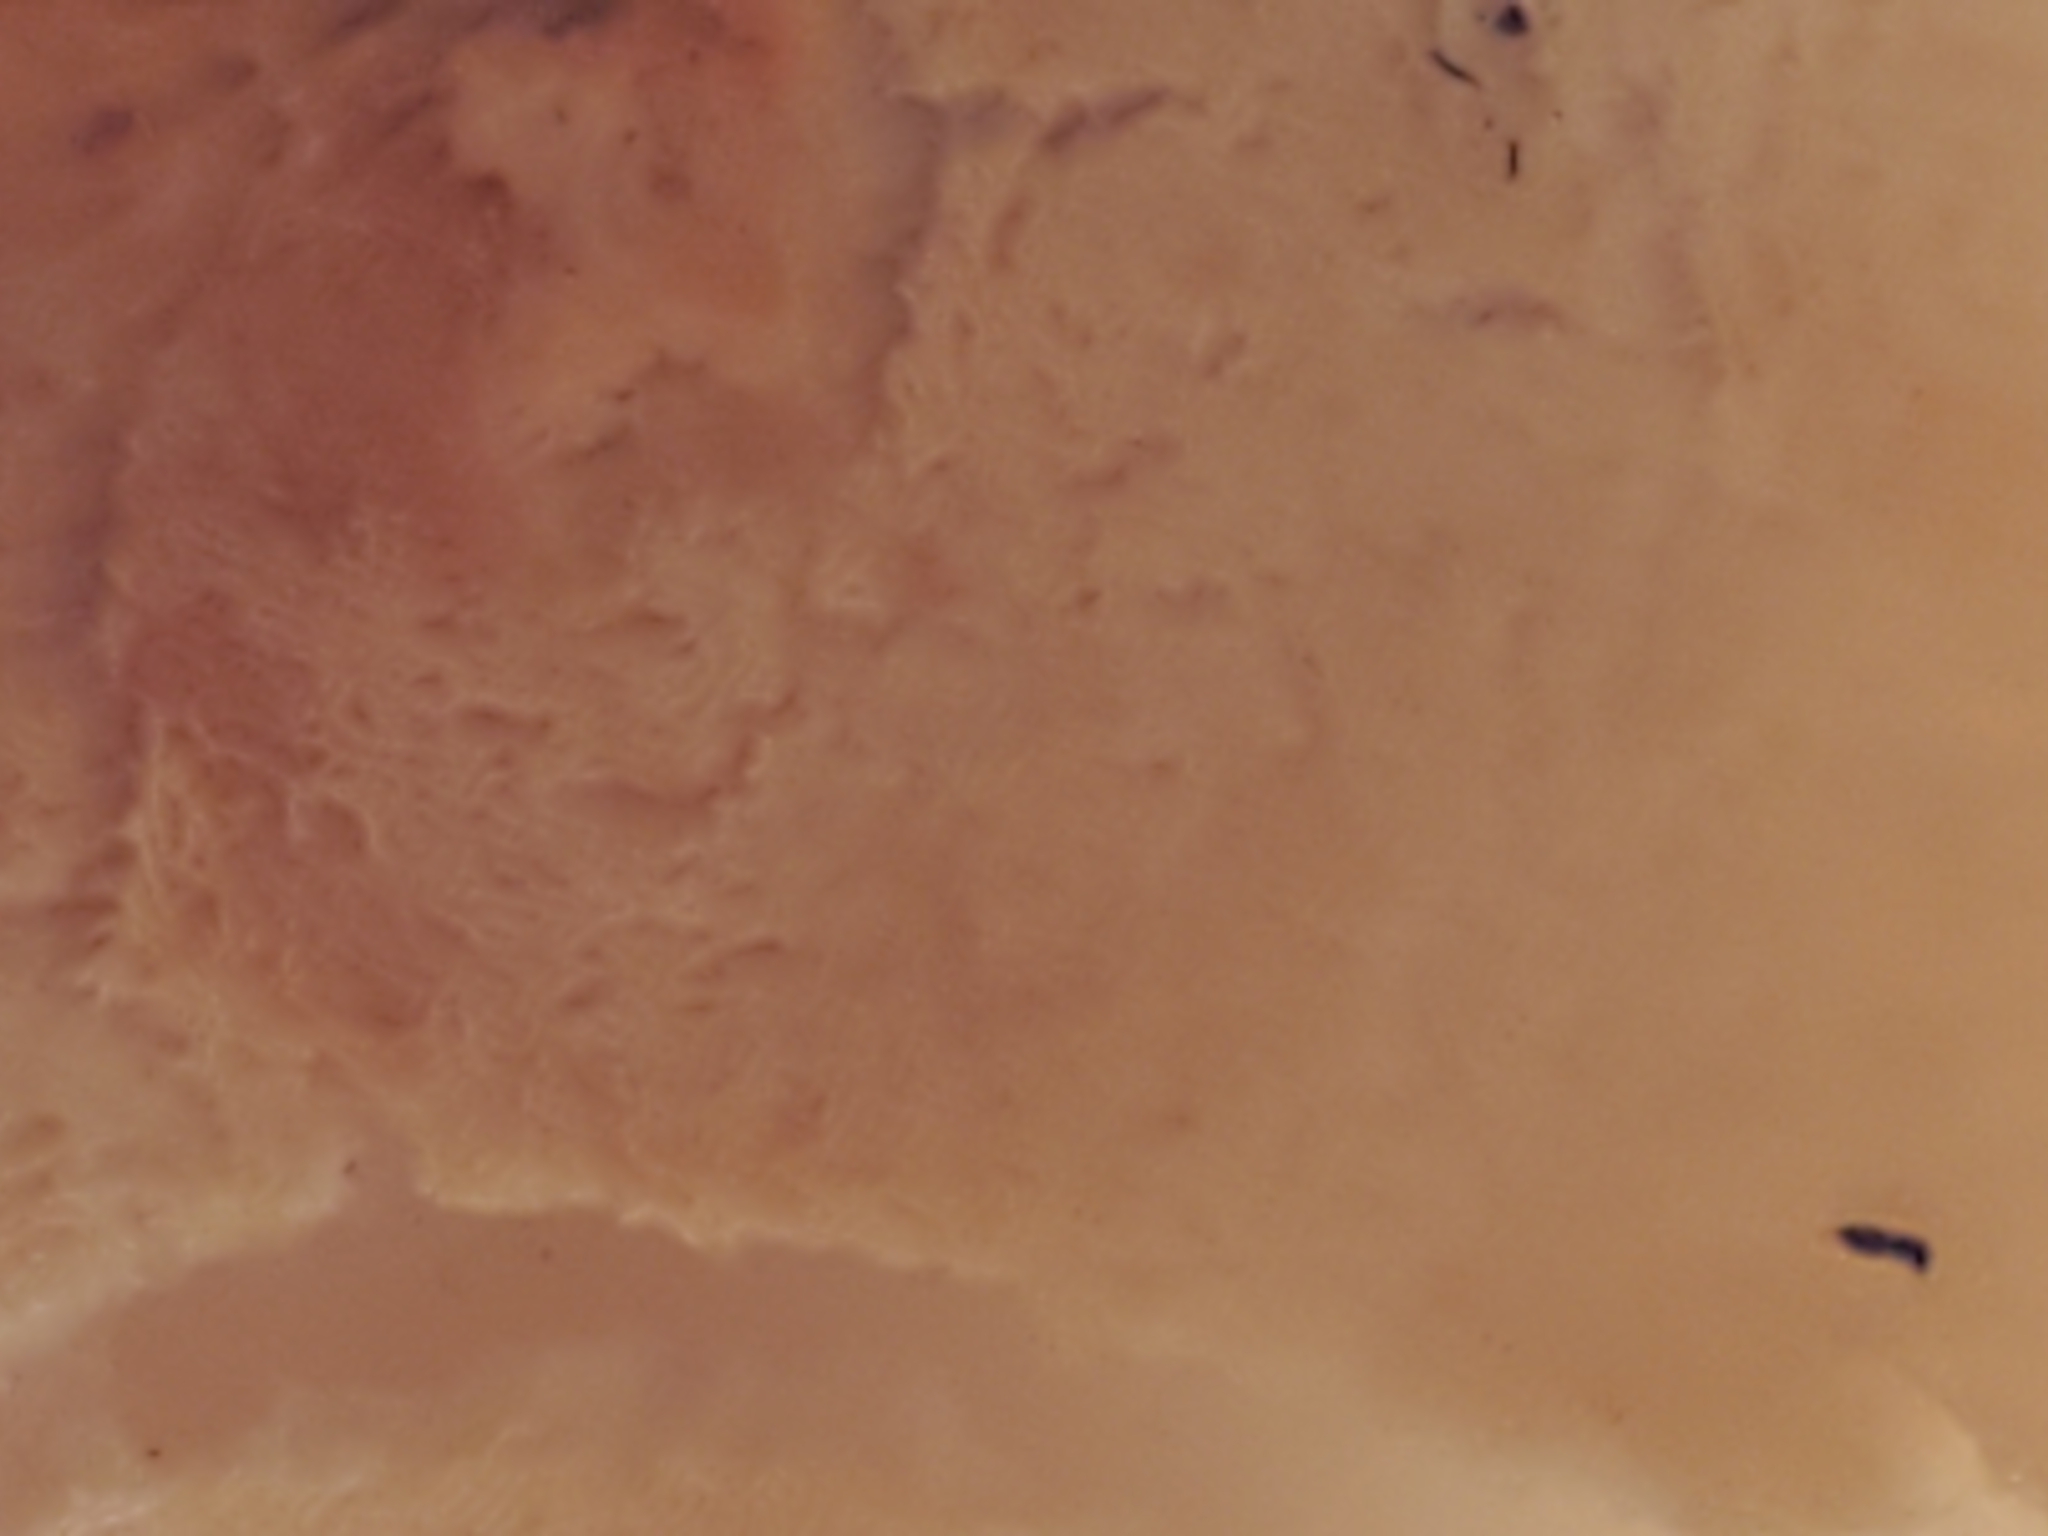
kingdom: Fungi
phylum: Basidiomycota
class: Agaricomycetes
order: Polyporales
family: Fomitopsidaceae
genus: Fomitopsis
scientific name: Fomitopsis betulina
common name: Birch polypore
